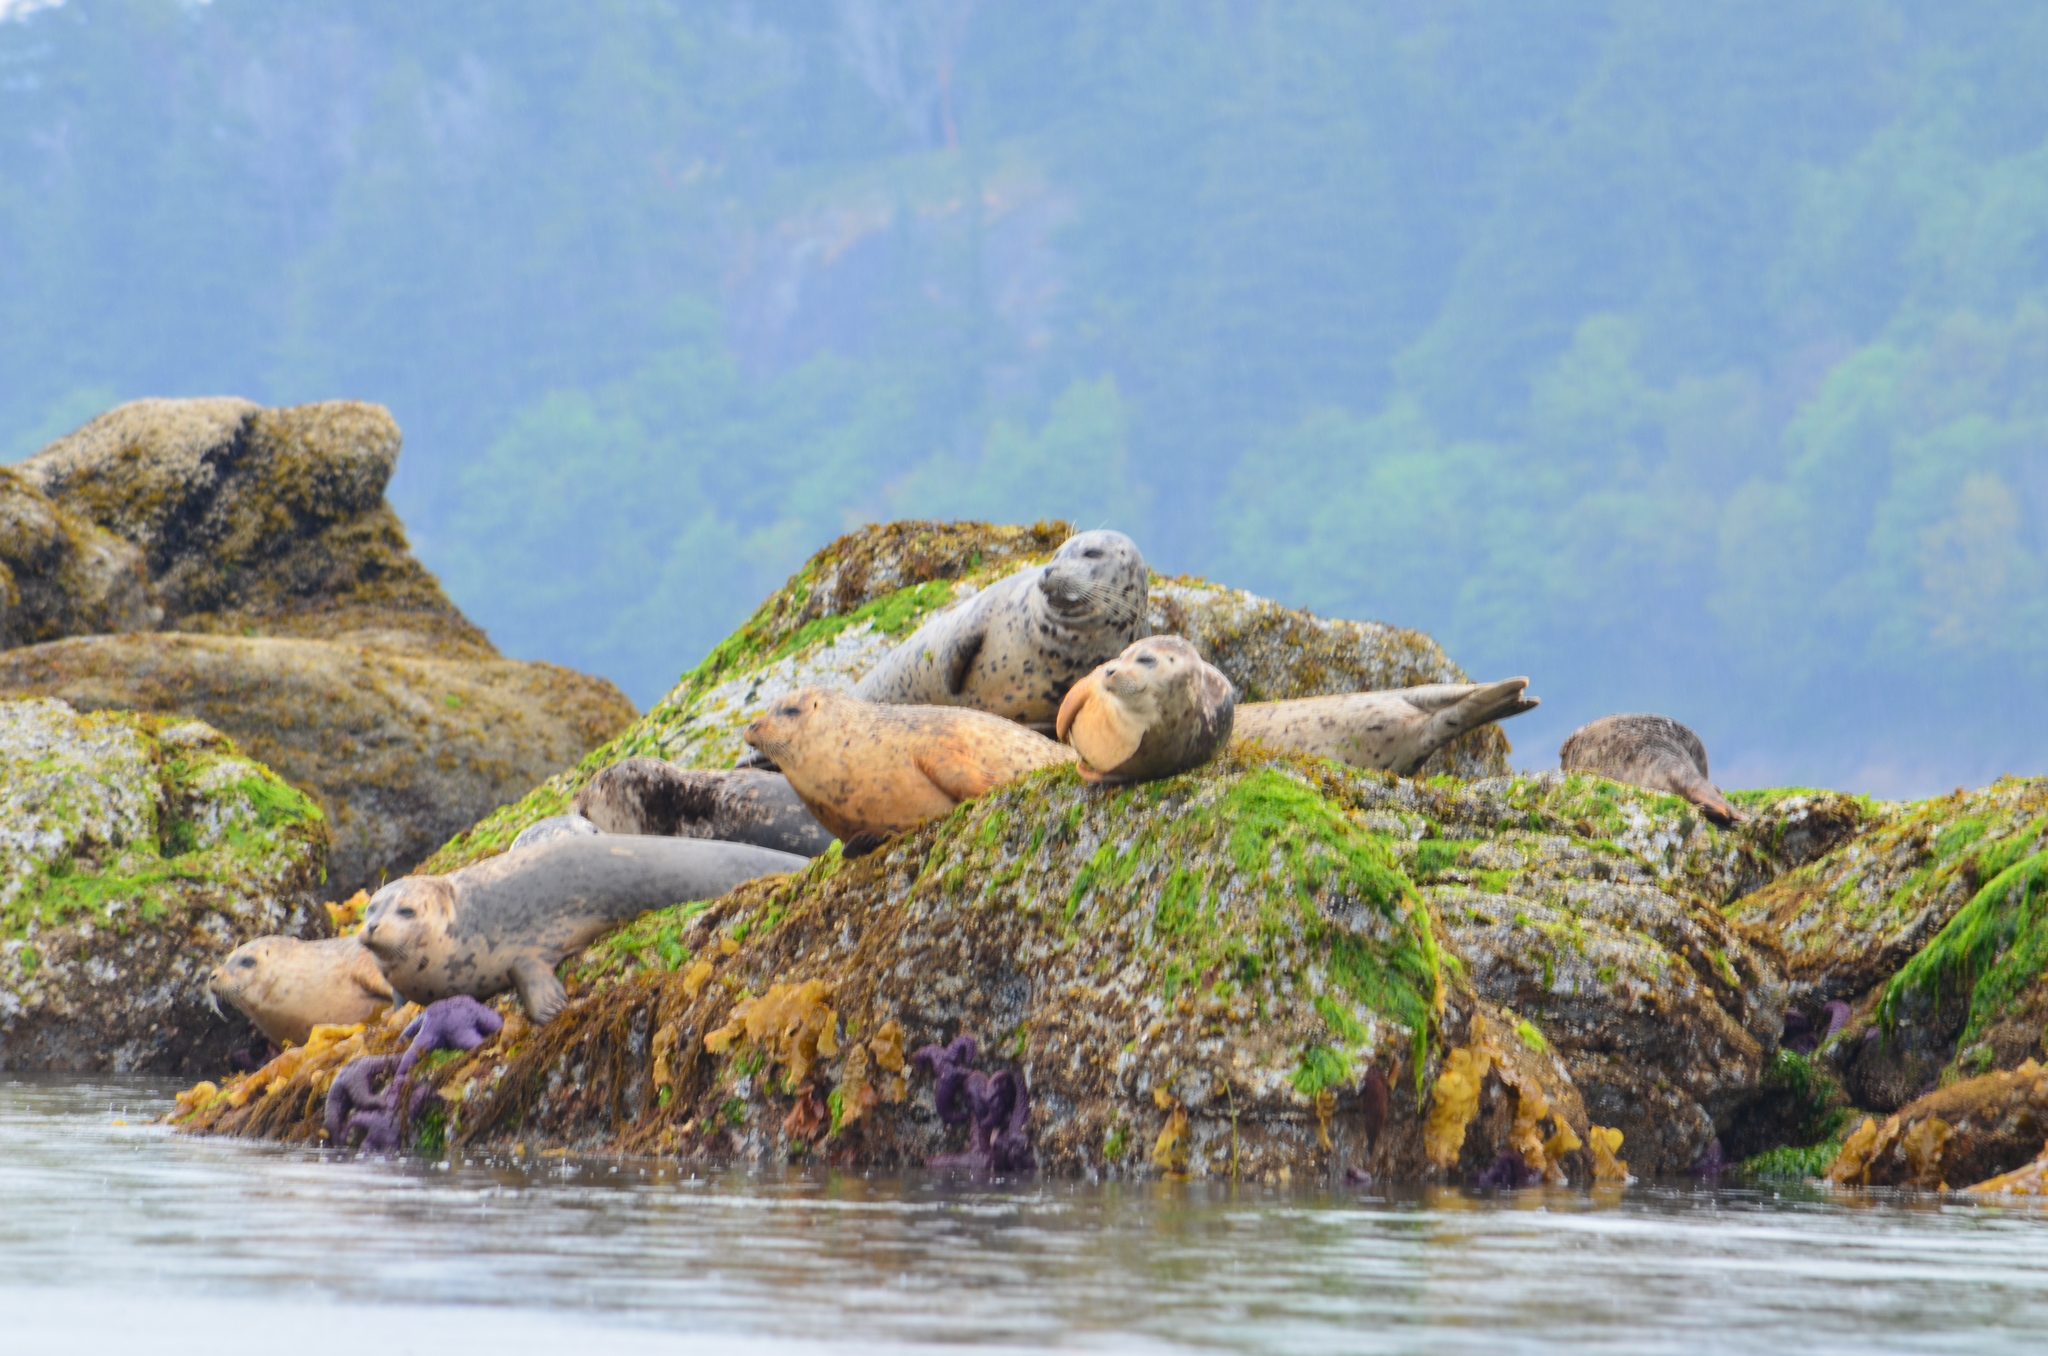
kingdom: Animalia
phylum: Chordata
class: Mammalia
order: Carnivora
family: Phocidae
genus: Phoca
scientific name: Phoca vitulina
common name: Harbor seal
